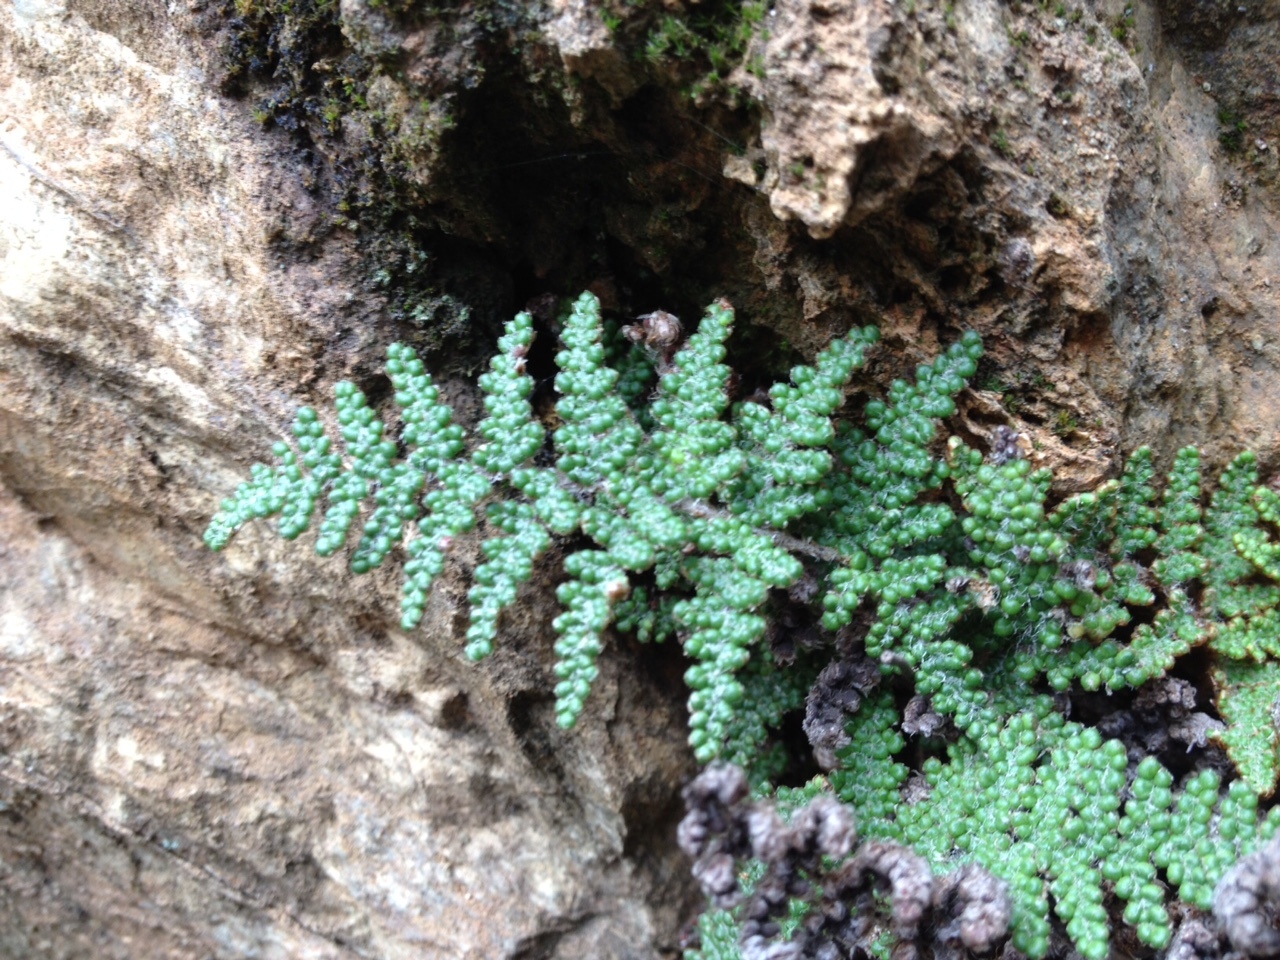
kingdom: Plantae
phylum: Tracheophyta
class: Polypodiopsida
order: Polypodiales
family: Pteridaceae
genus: Myriopteris
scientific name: Myriopteris covillei
